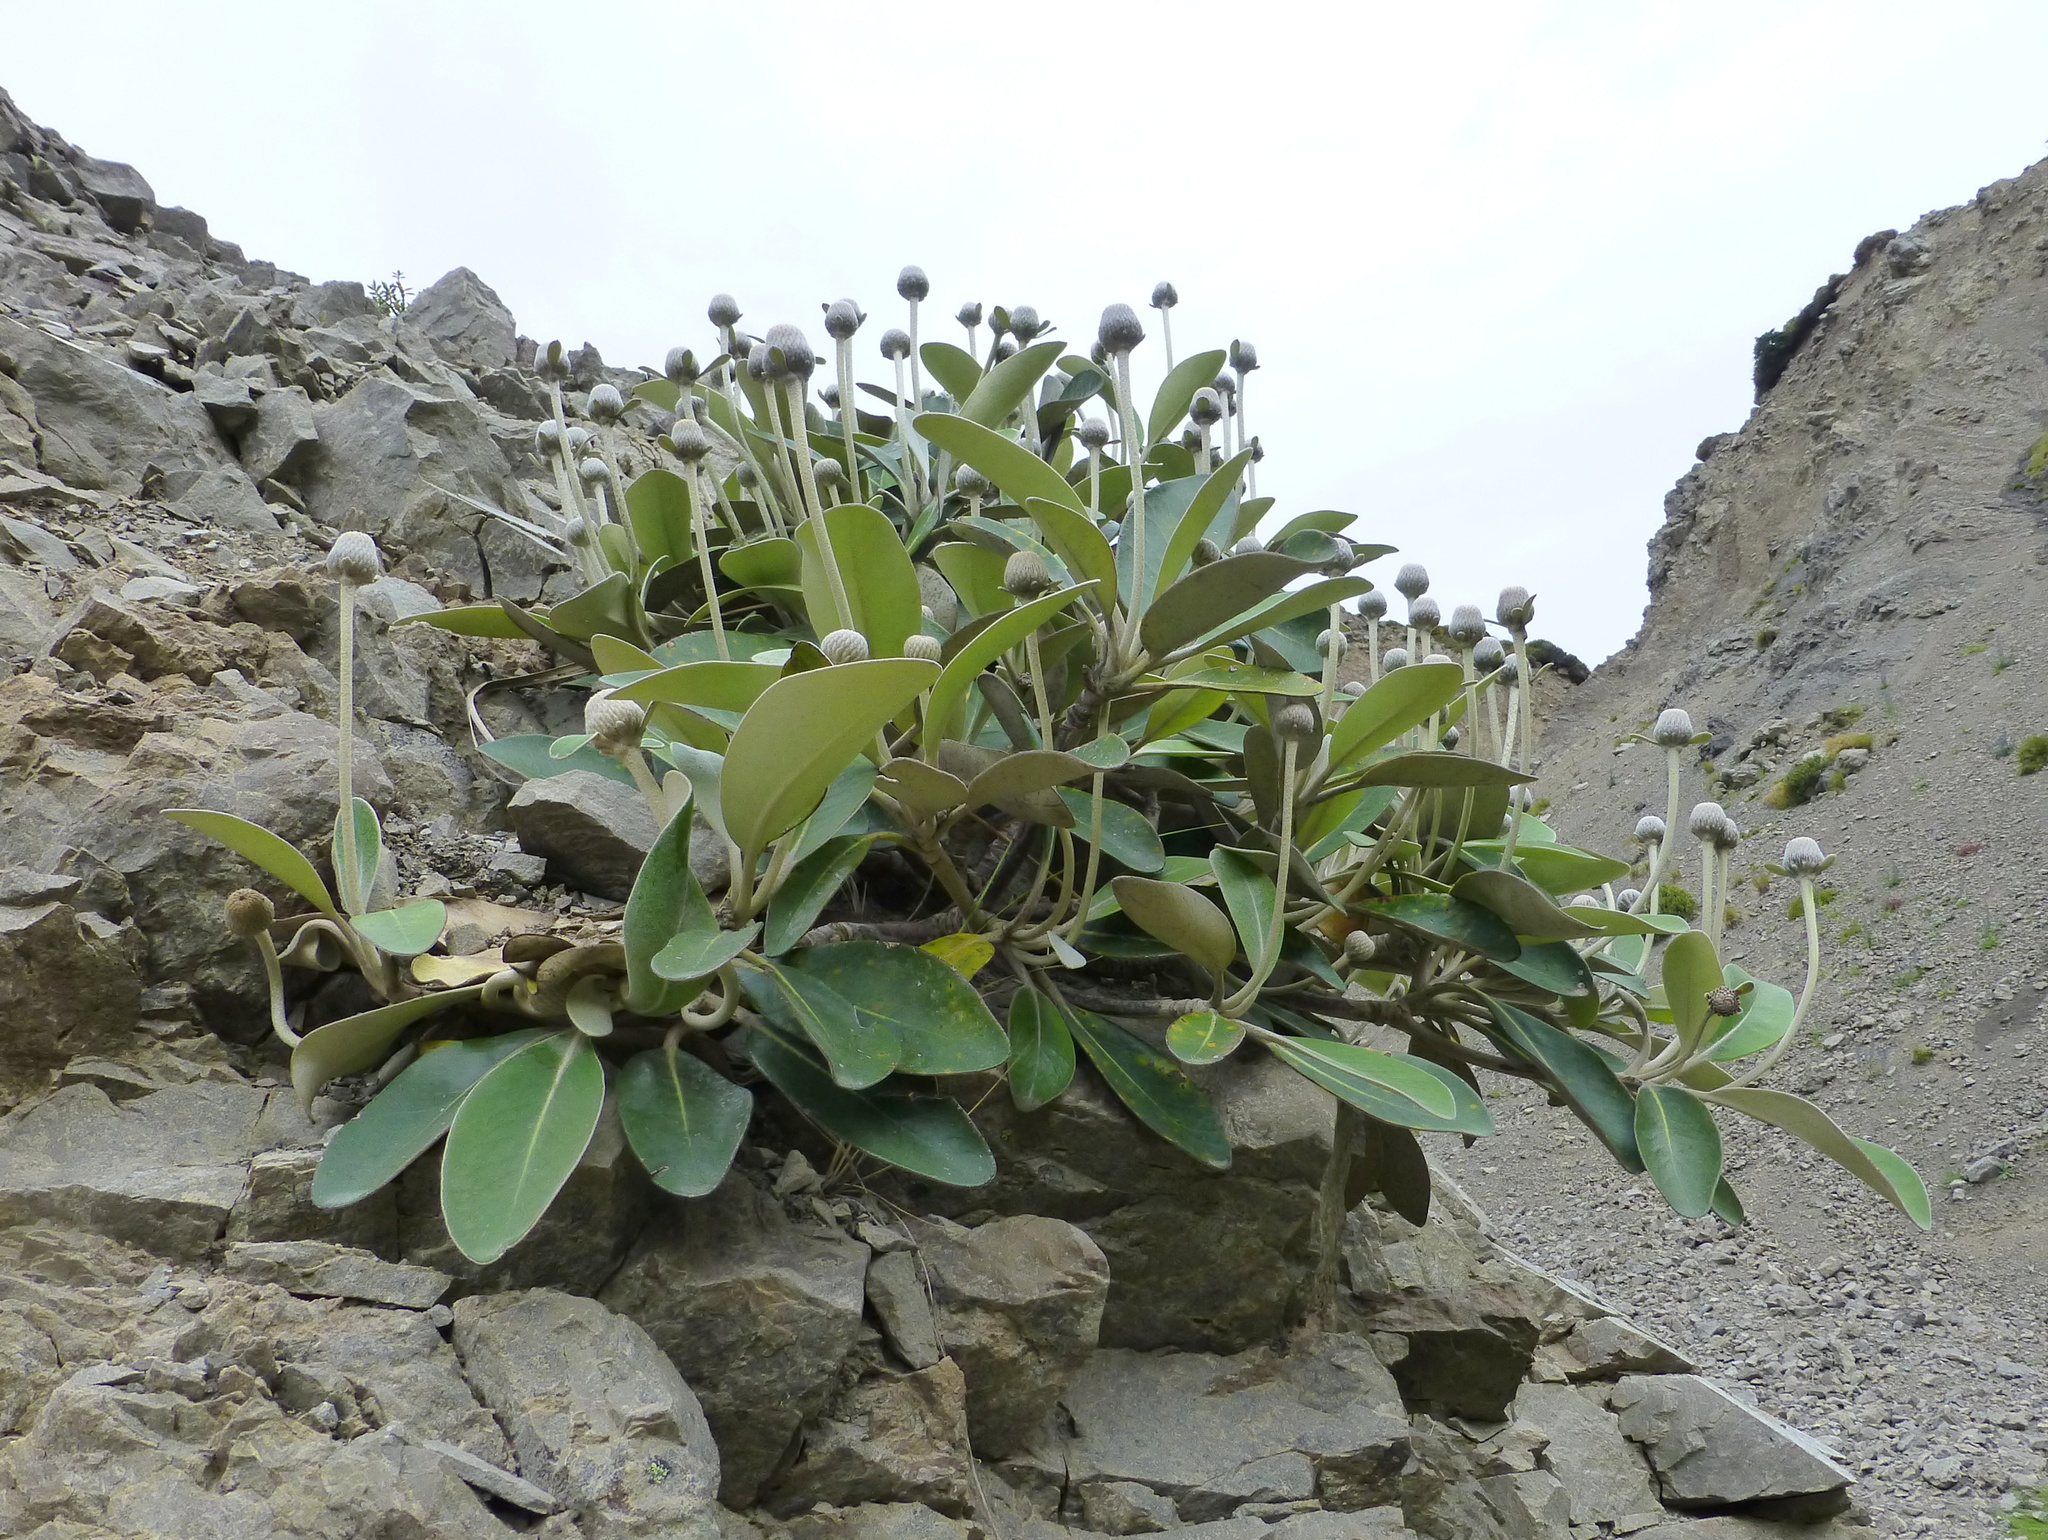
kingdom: Plantae
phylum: Tracheophyta
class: Magnoliopsida
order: Asterales
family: Asteraceae
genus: Pachystegia
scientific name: Pachystegia minor
